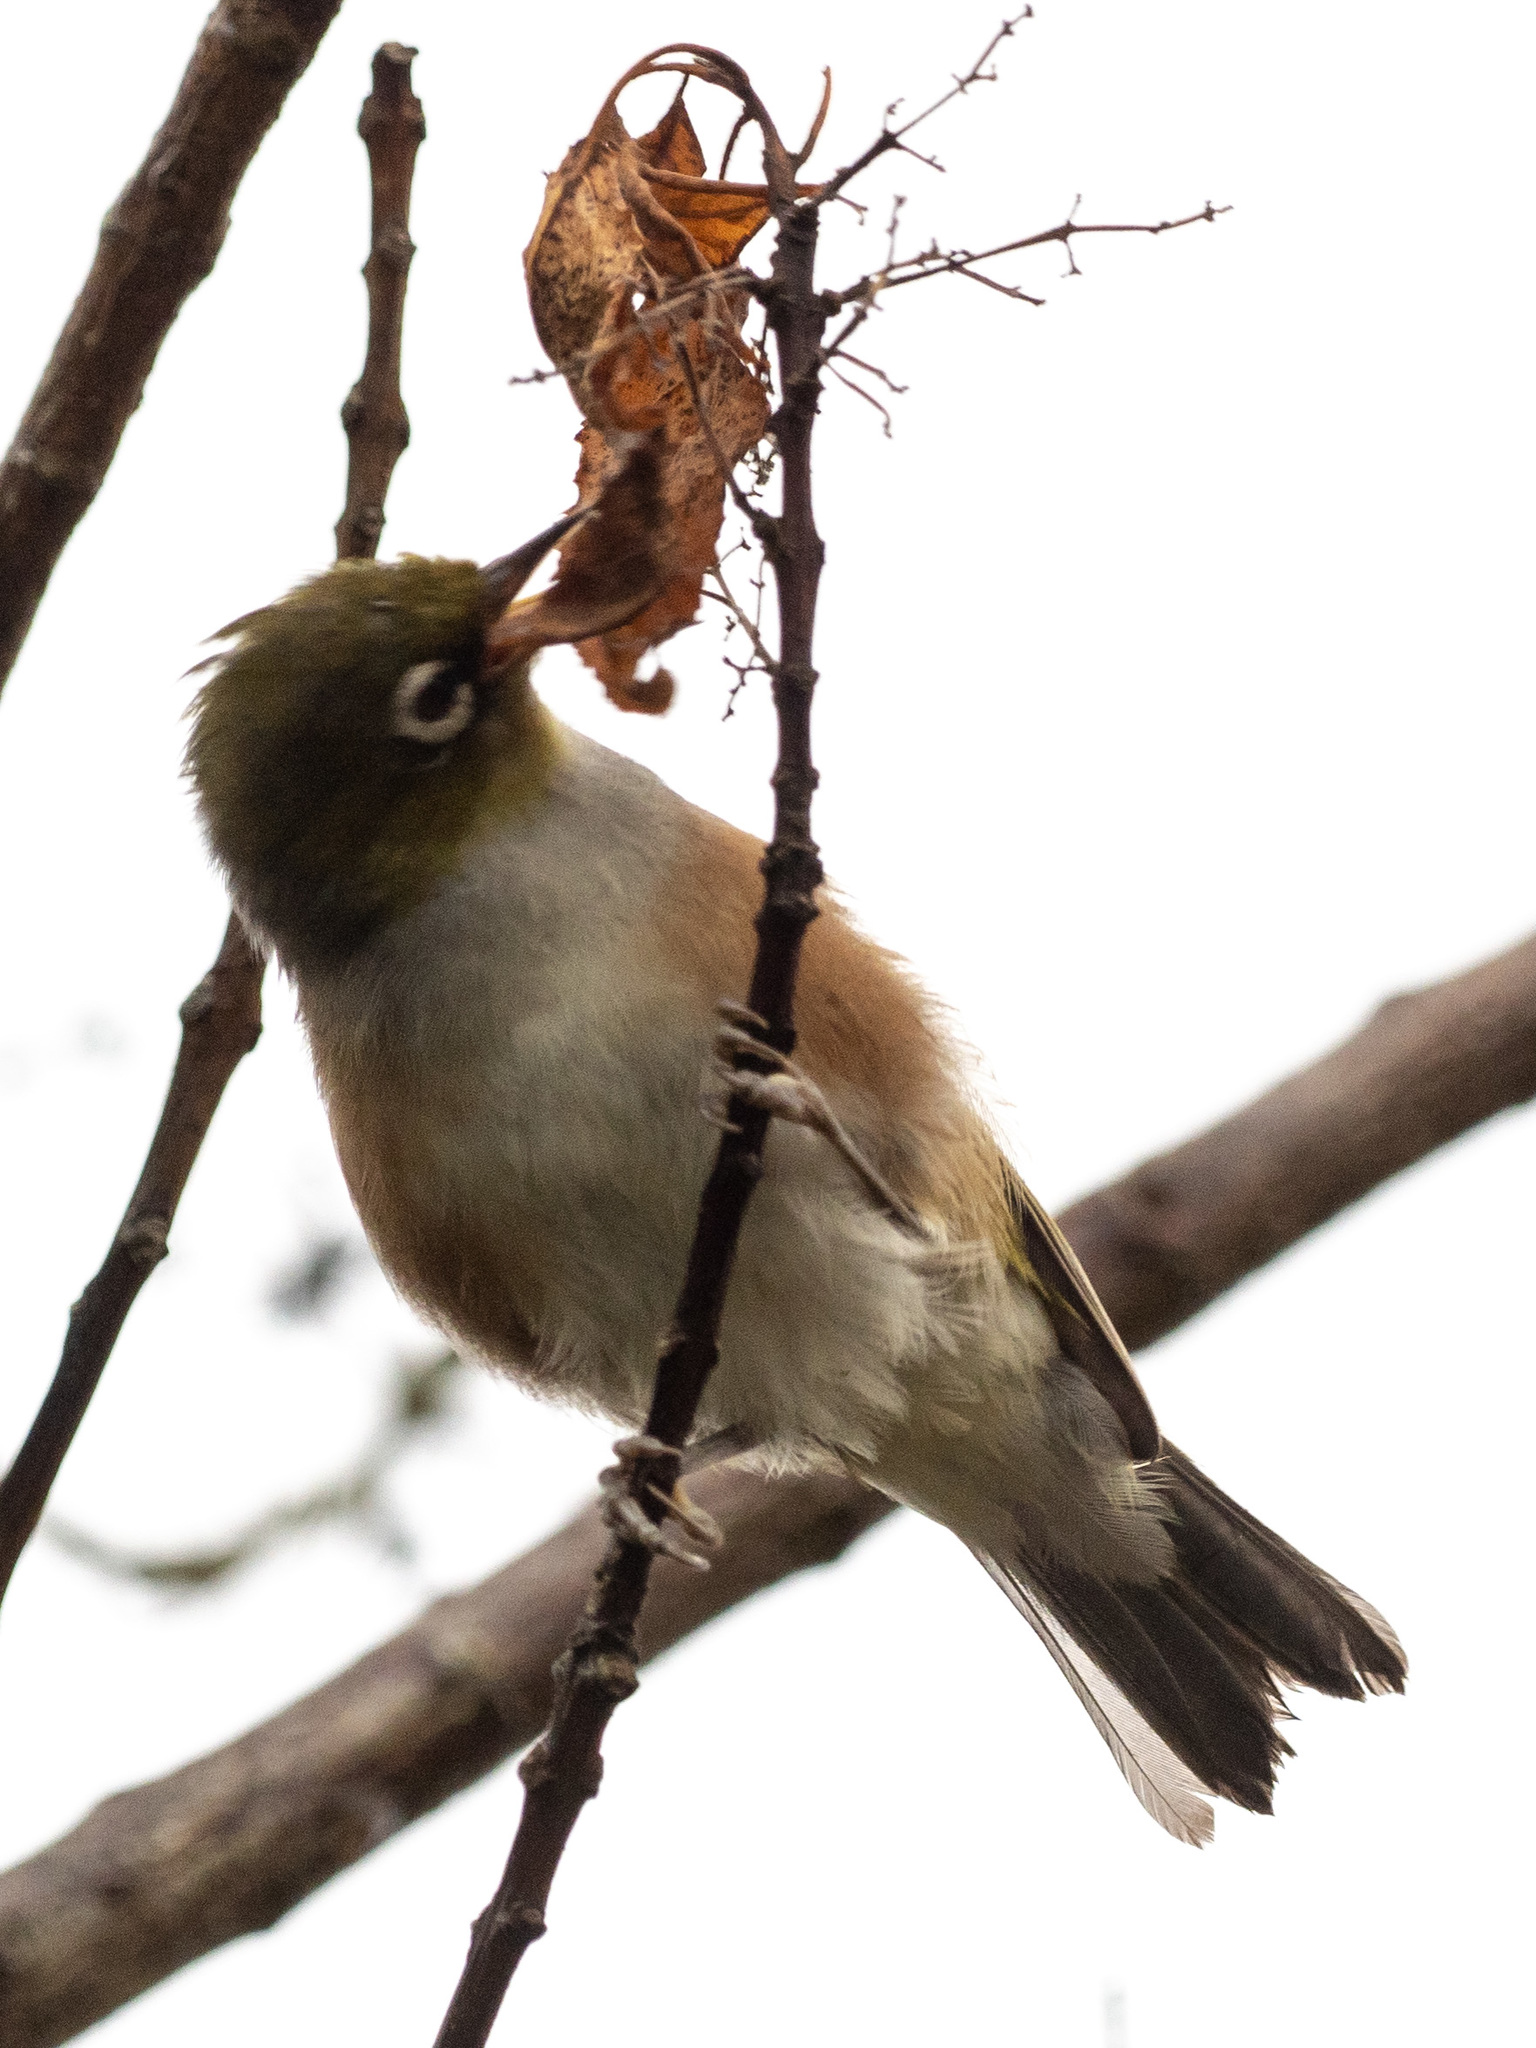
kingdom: Animalia
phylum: Chordata
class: Aves
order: Passeriformes
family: Zosteropidae
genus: Zosterops
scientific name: Zosterops lateralis
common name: Silvereye
